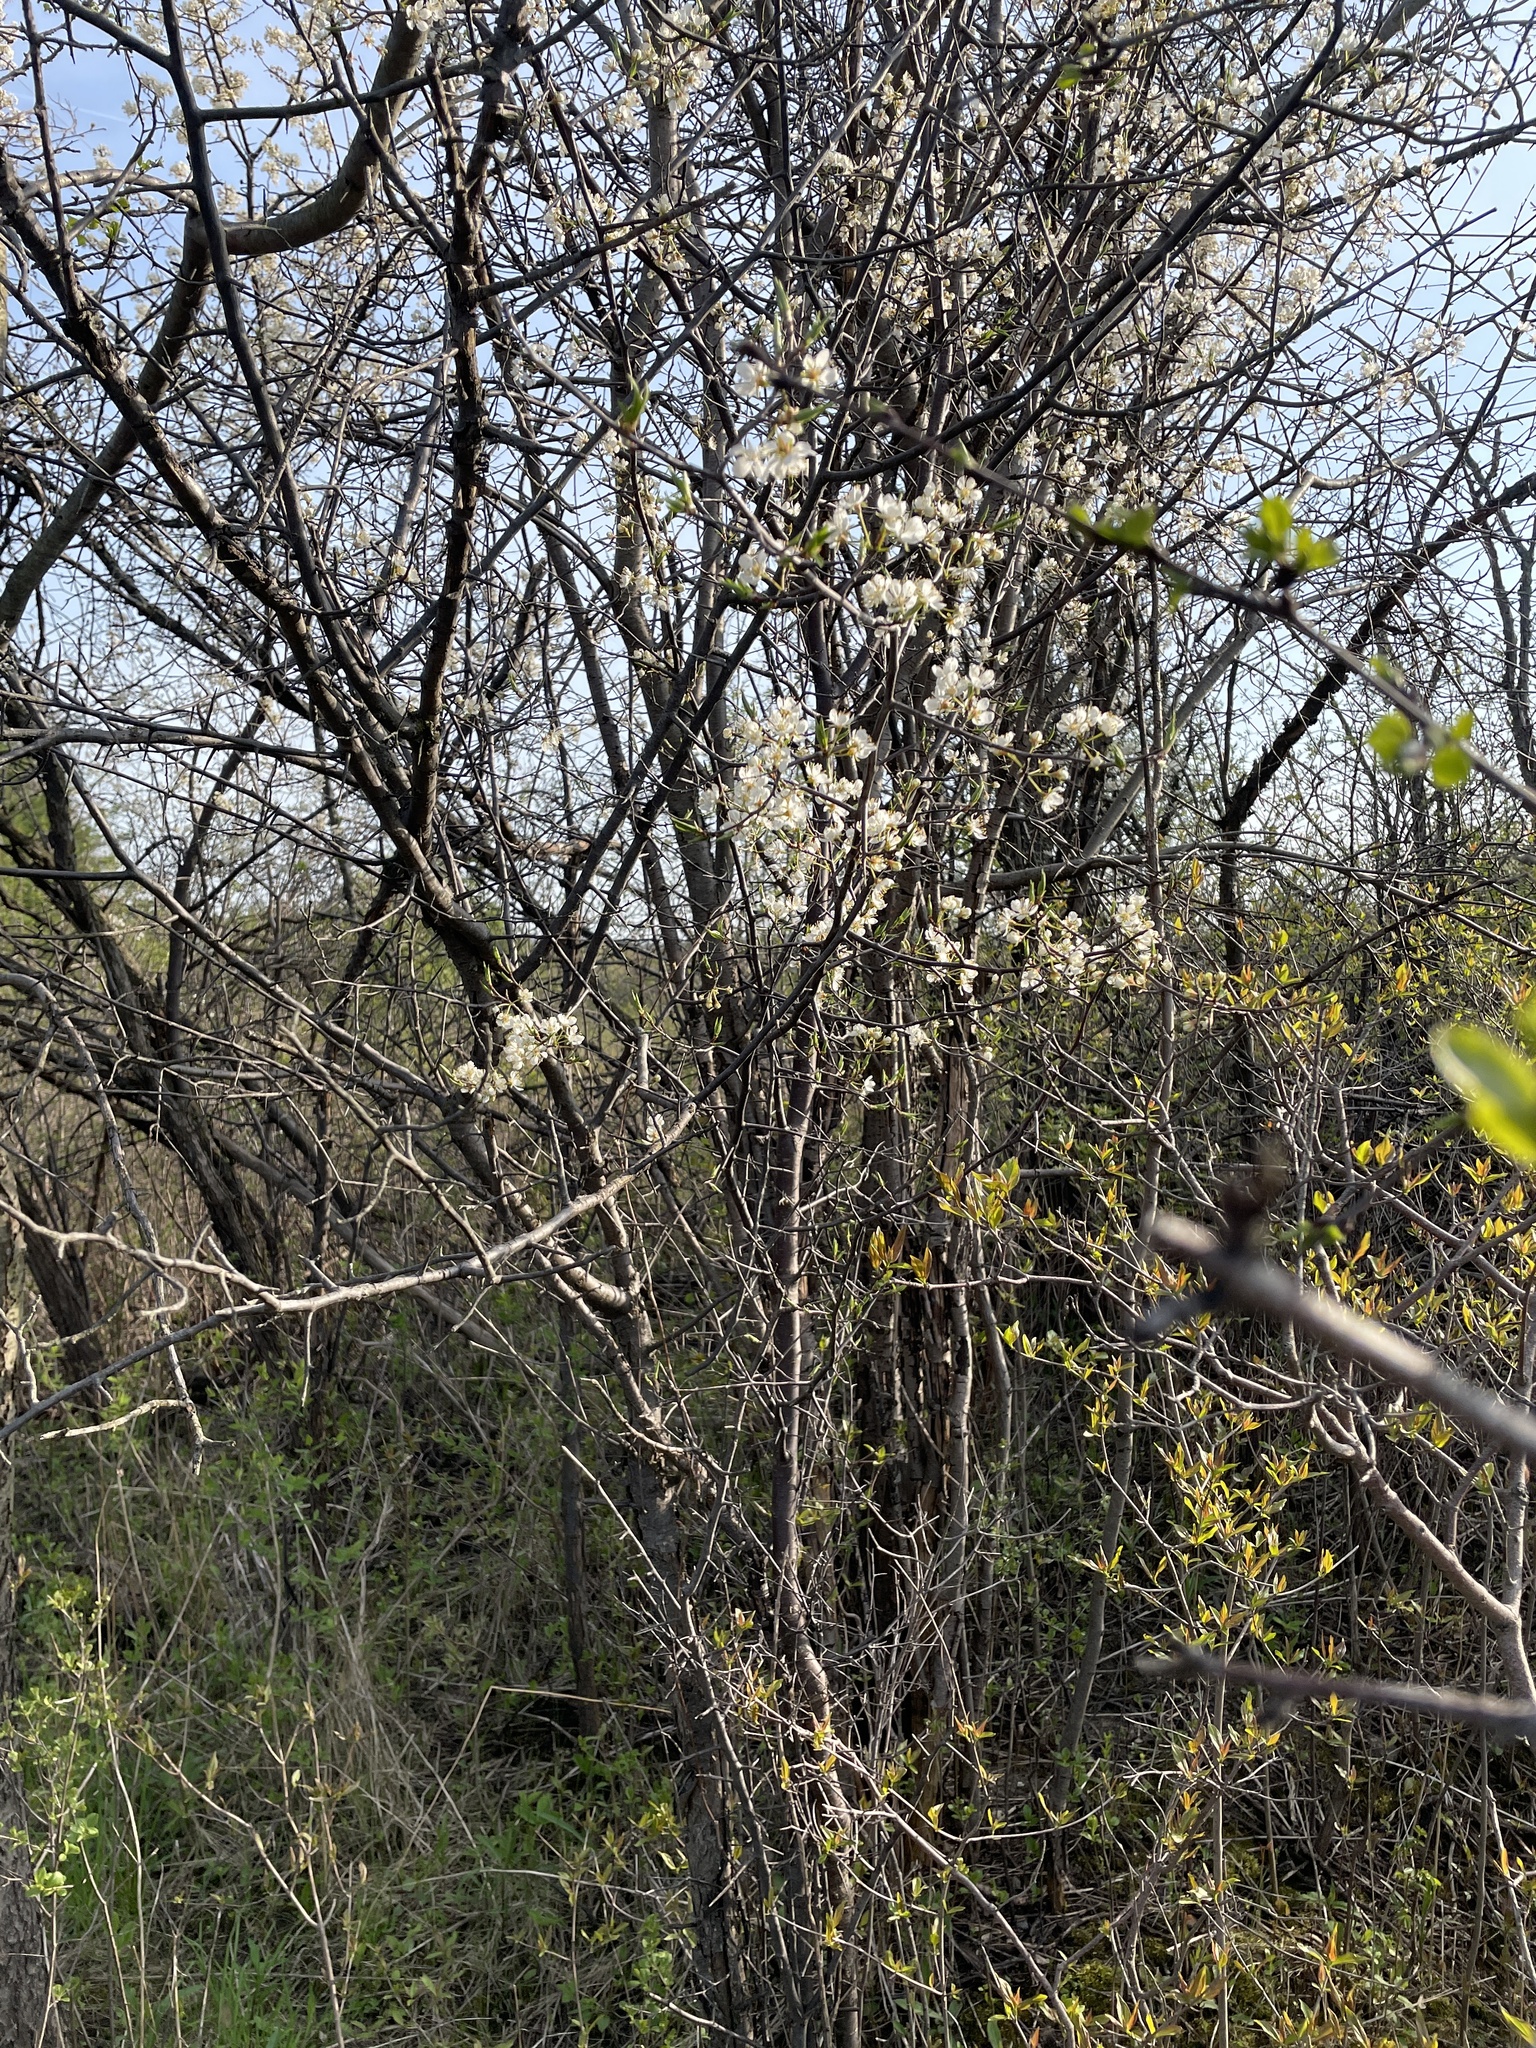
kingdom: Plantae
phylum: Tracheophyta
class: Magnoliopsida
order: Rosales
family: Rosaceae
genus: Prunus
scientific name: Prunus americana
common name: American plum
